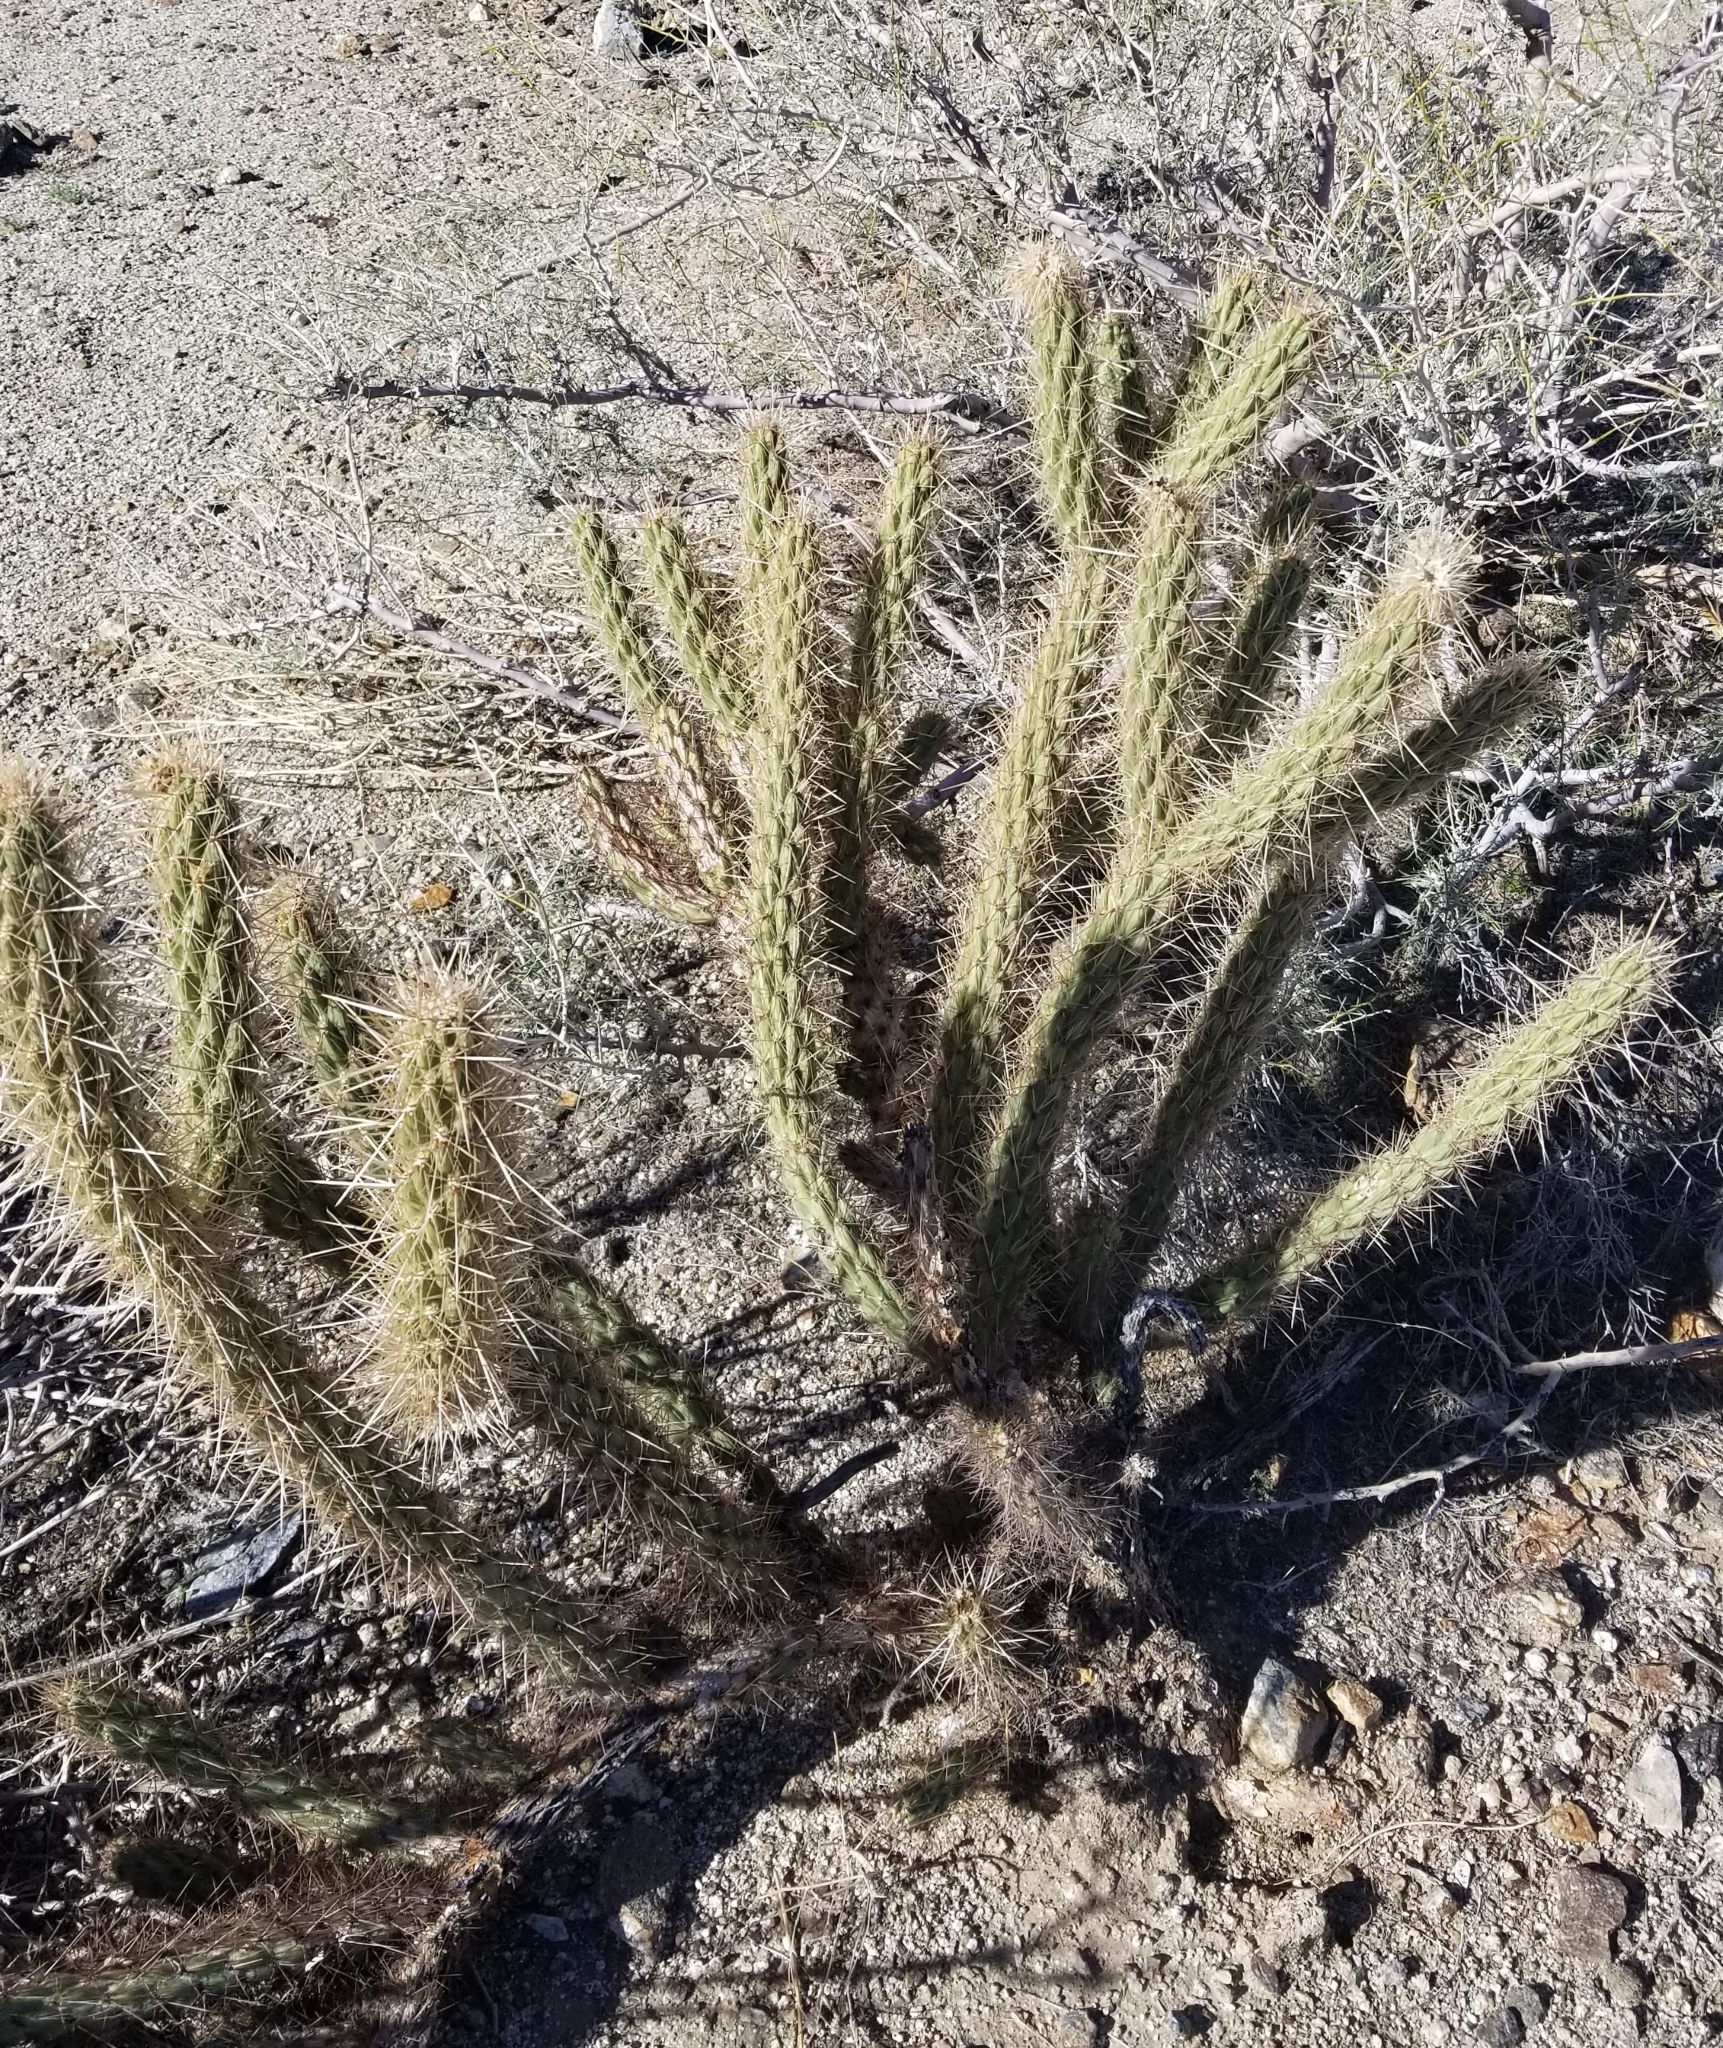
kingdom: Plantae
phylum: Tracheophyta
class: Magnoliopsida
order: Caryophyllales
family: Cactaceae
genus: Cylindropuntia
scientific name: Cylindropuntia ganderi
